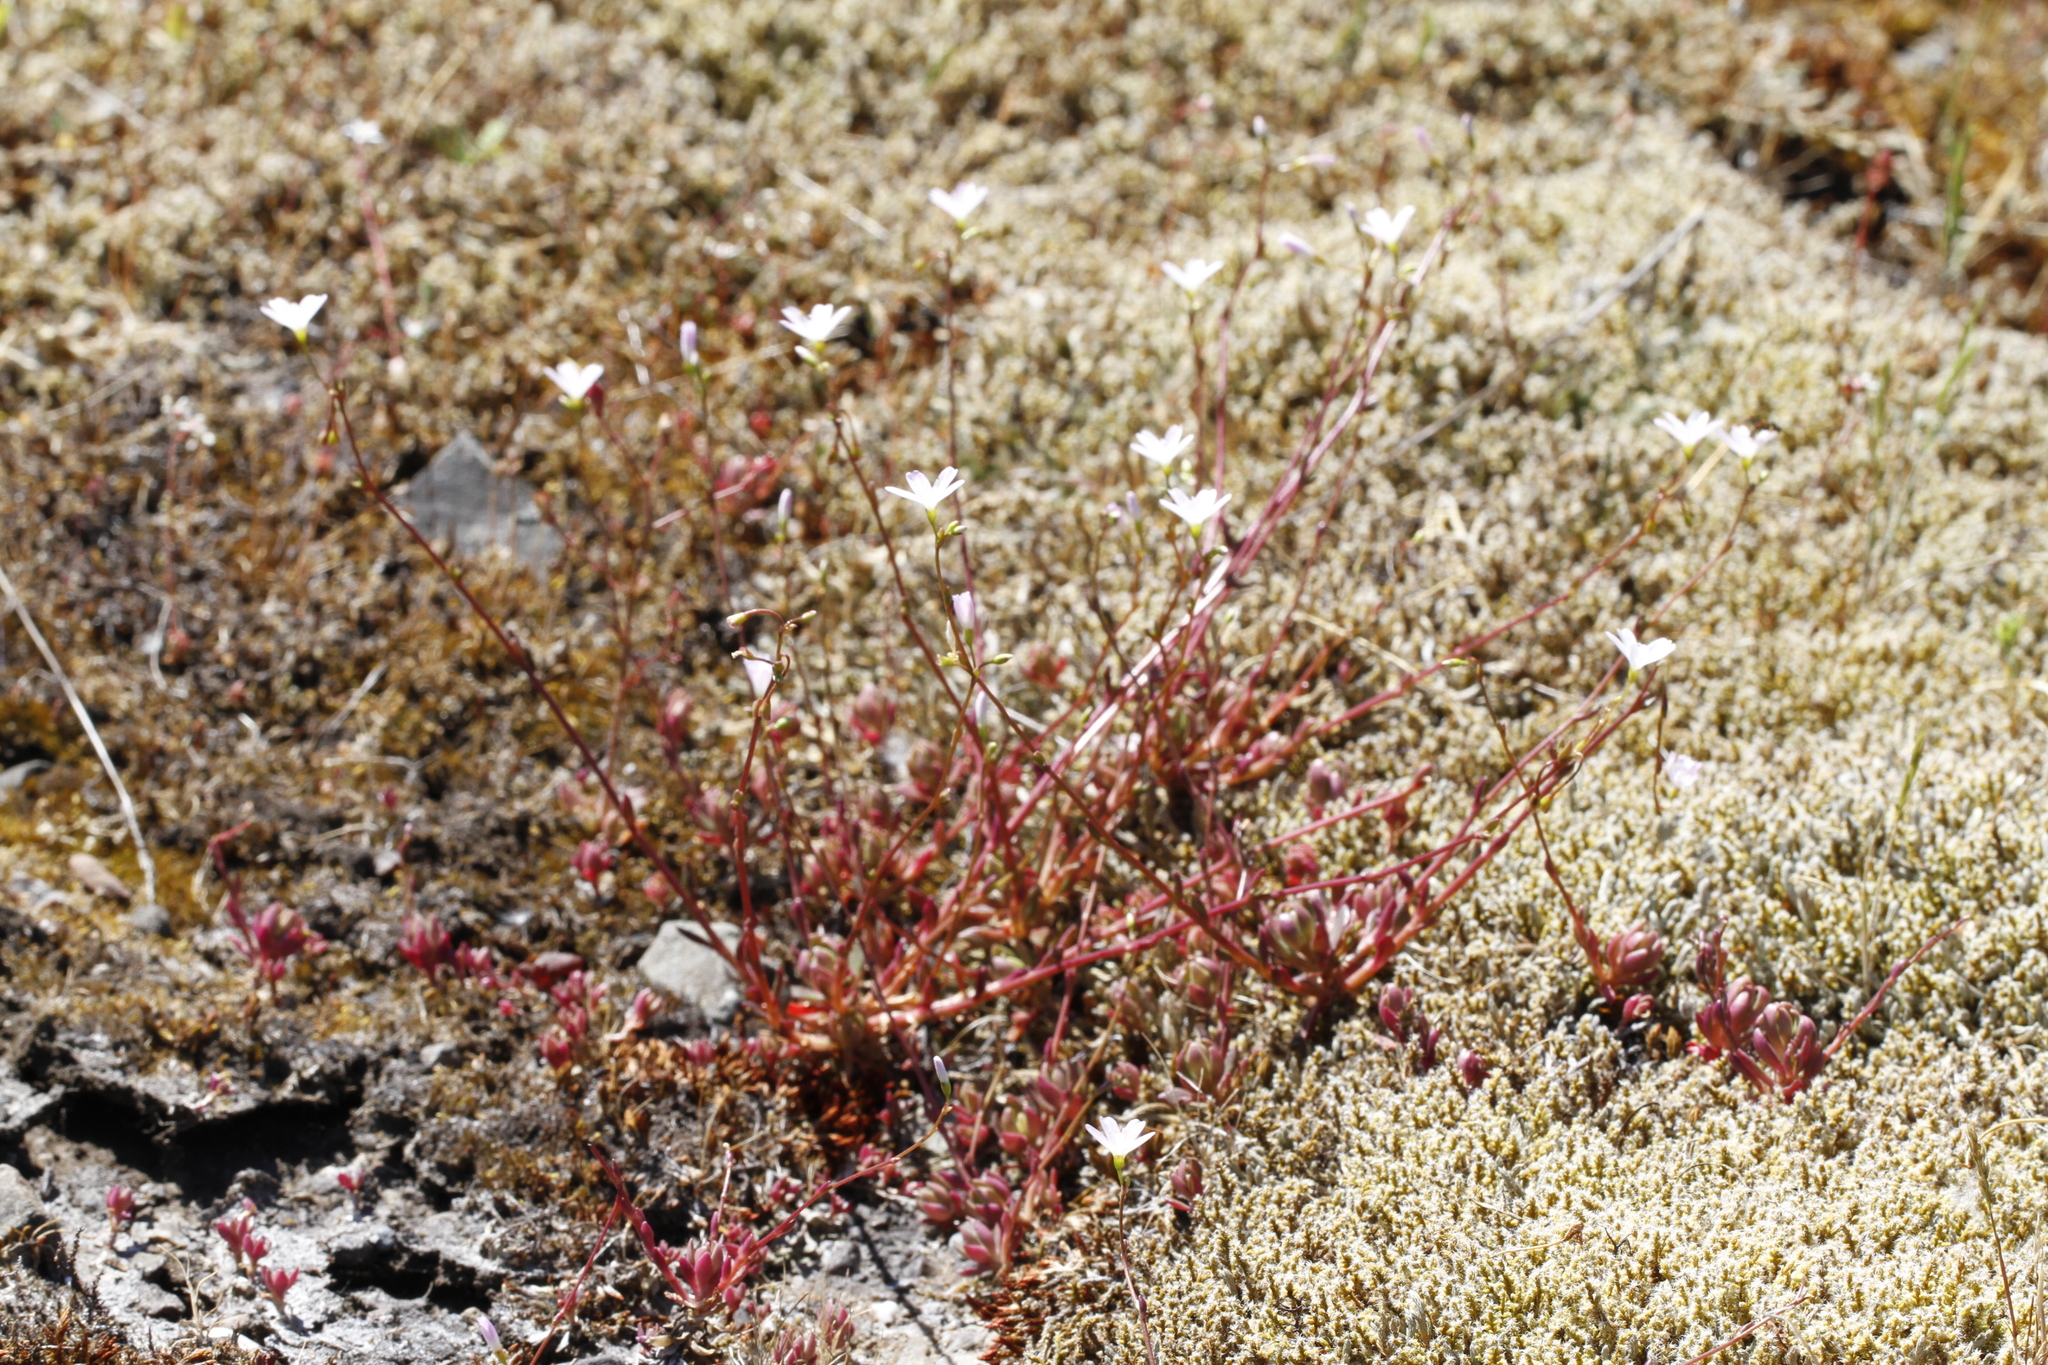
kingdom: Plantae
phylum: Tracheophyta
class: Magnoliopsida
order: Caryophyllales
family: Montiaceae
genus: Montia
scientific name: Montia parvifolia
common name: Small-leaved blinks
